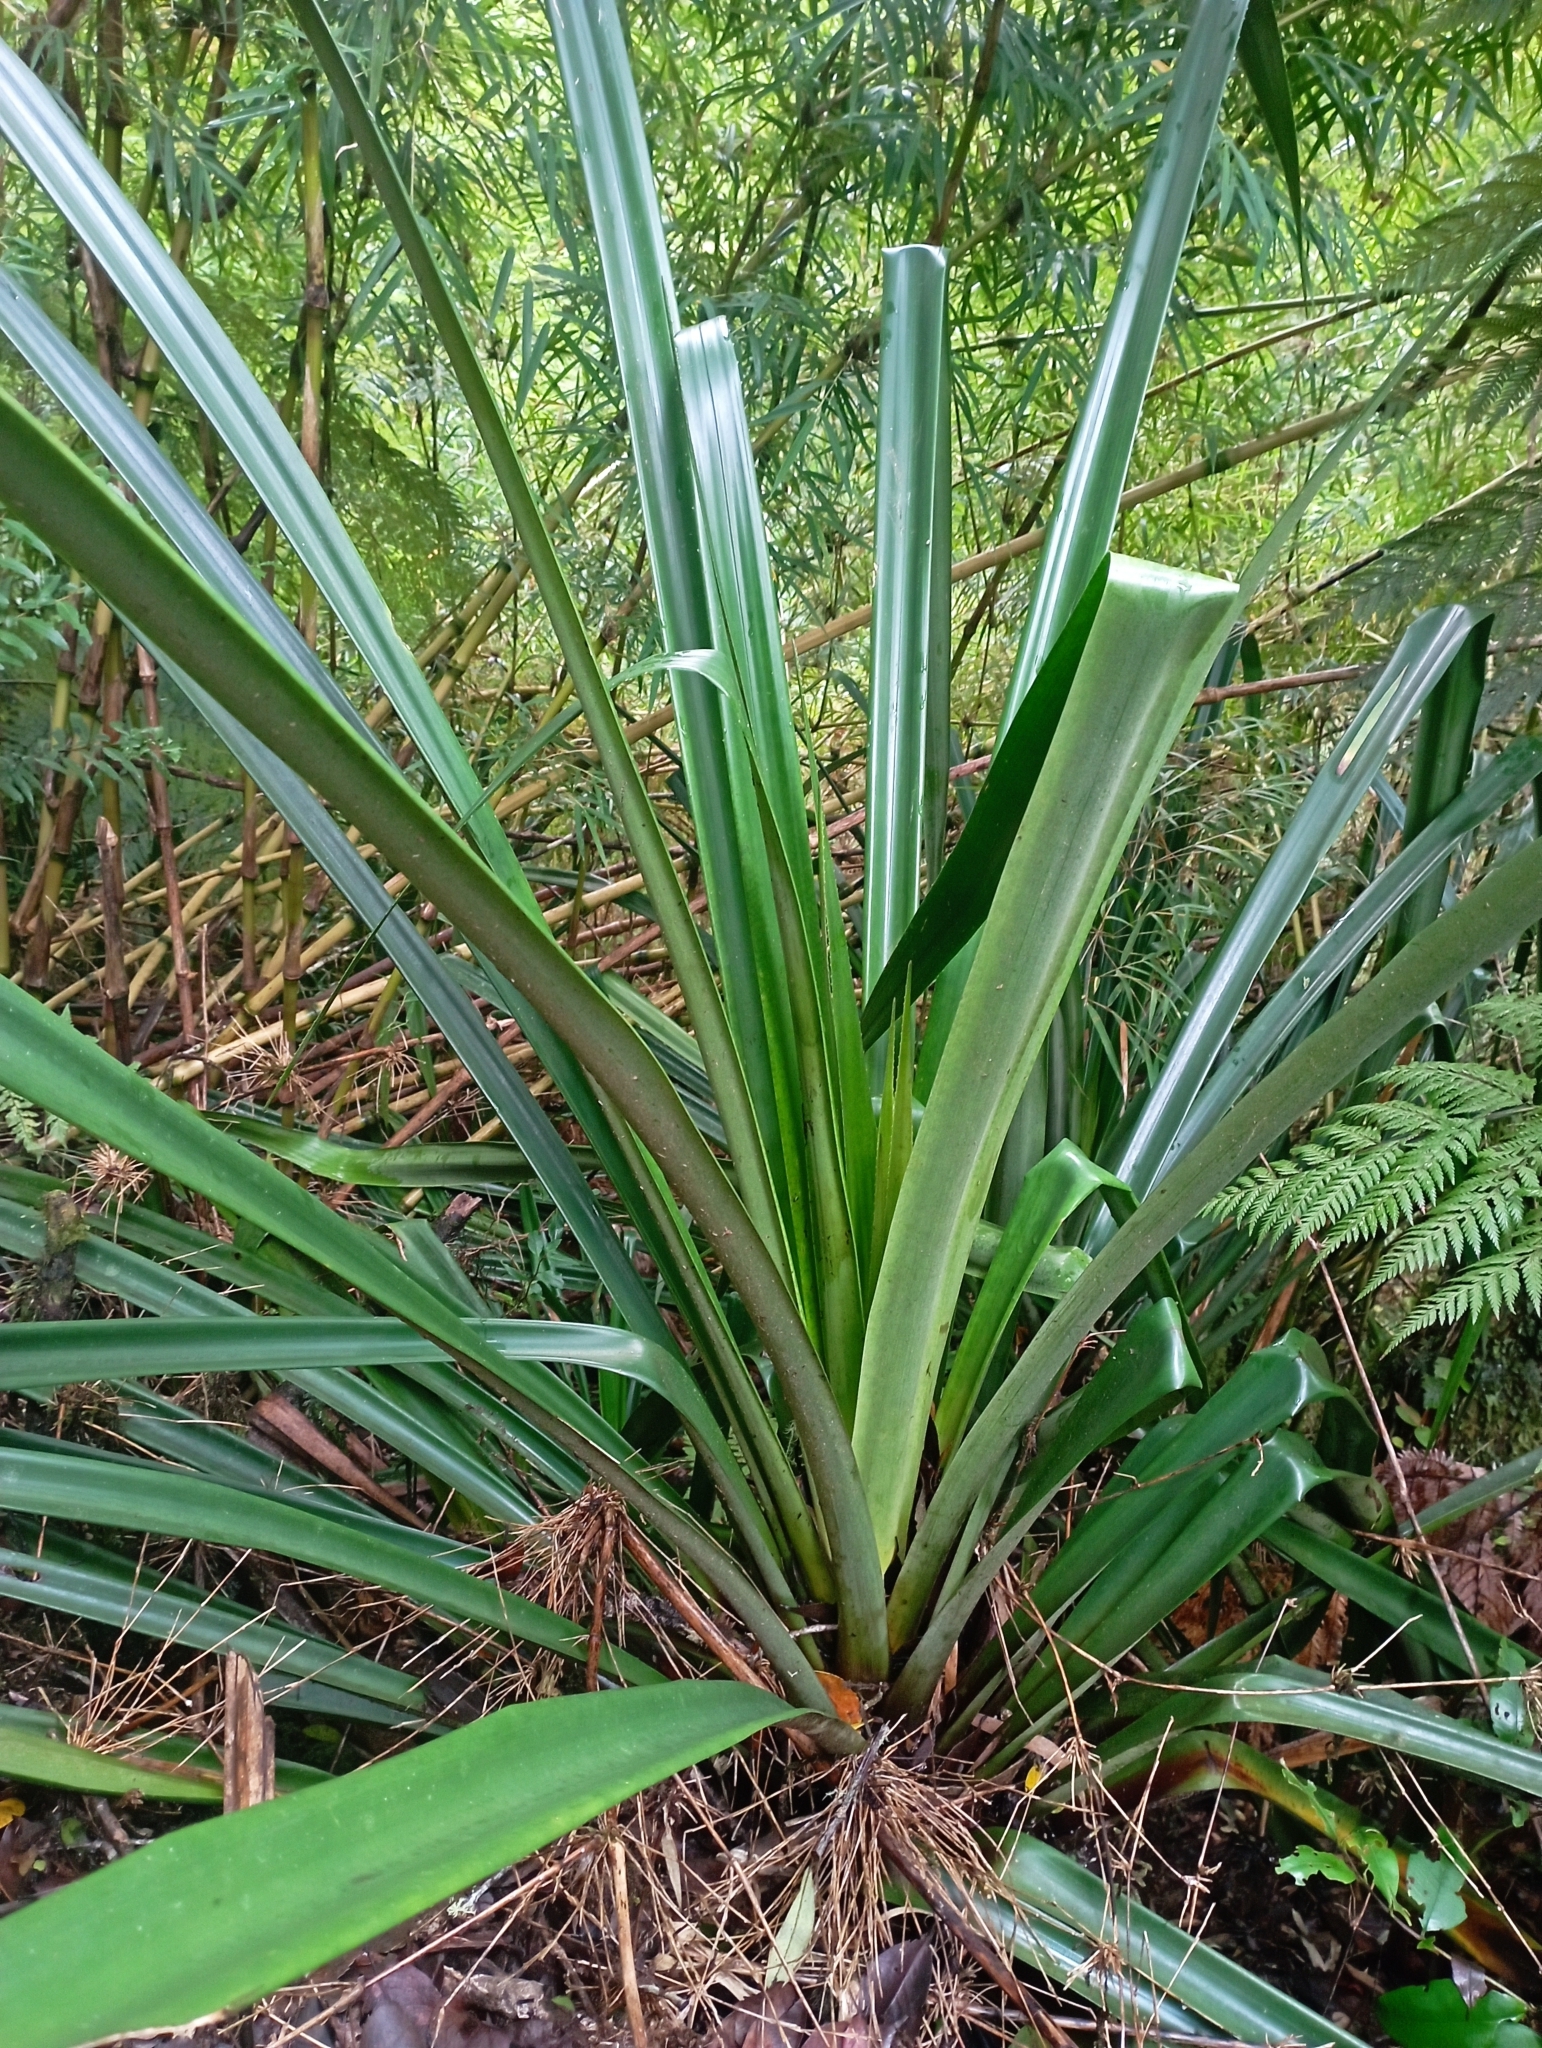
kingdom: Plantae
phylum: Tracheophyta
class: Liliopsida
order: Poales
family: Bromeliaceae
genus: Greigia
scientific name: Greigia landbeckii
